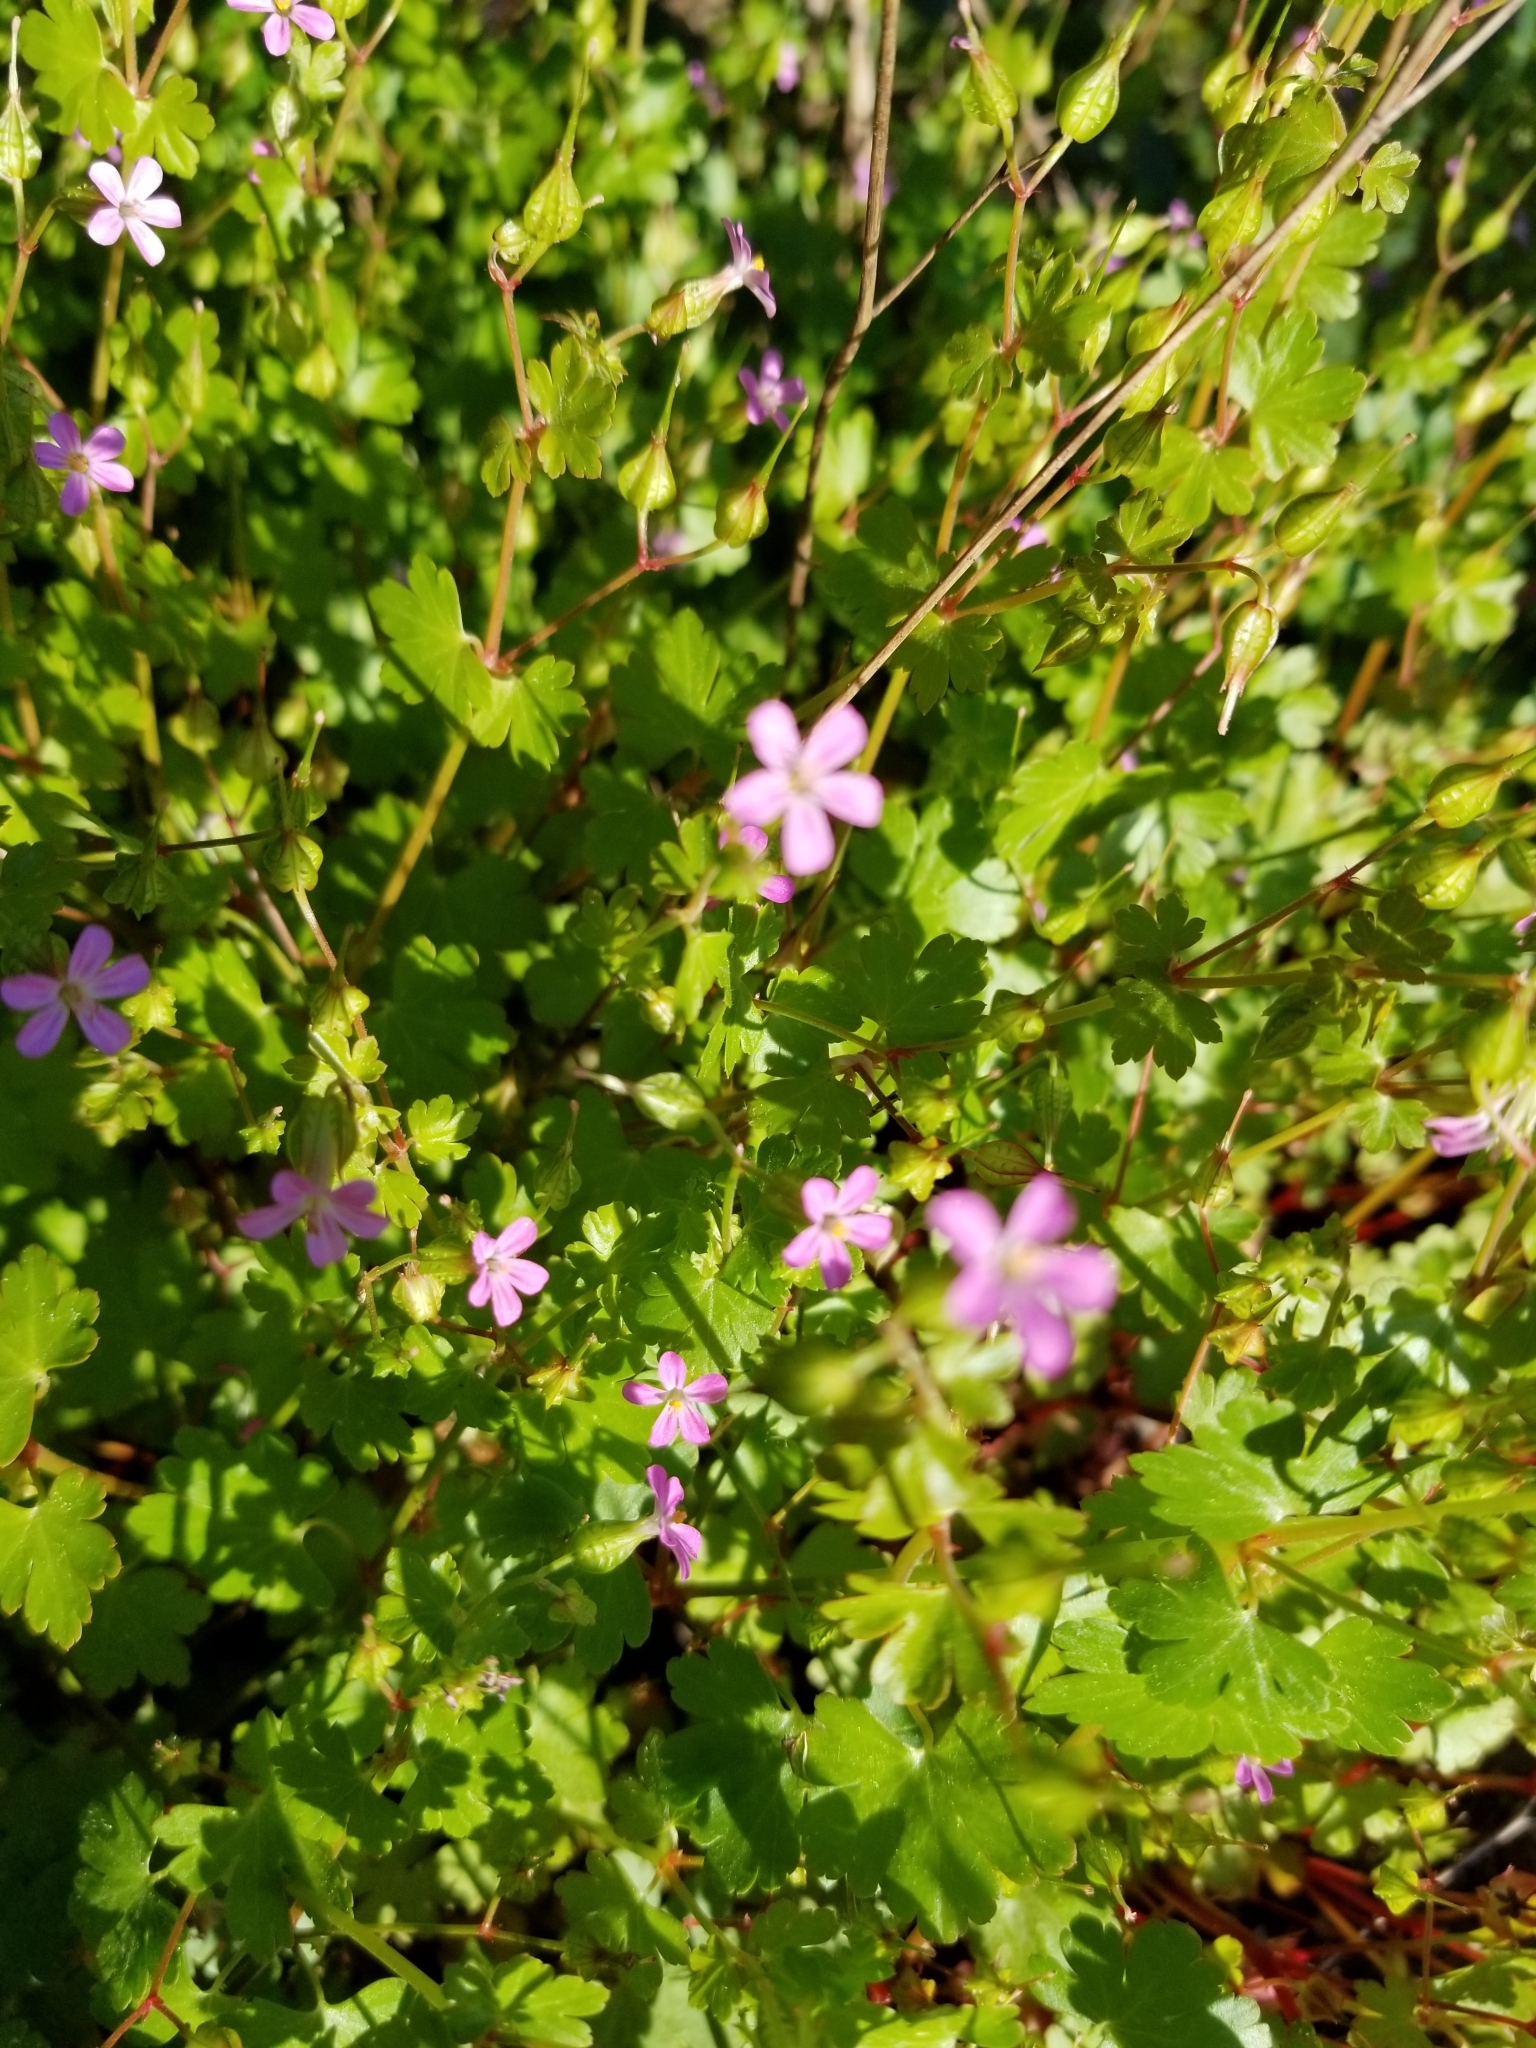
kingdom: Plantae
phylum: Tracheophyta
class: Magnoliopsida
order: Geraniales
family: Geraniaceae
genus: Geranium
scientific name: Geranium robertianum
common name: Herb-robert
